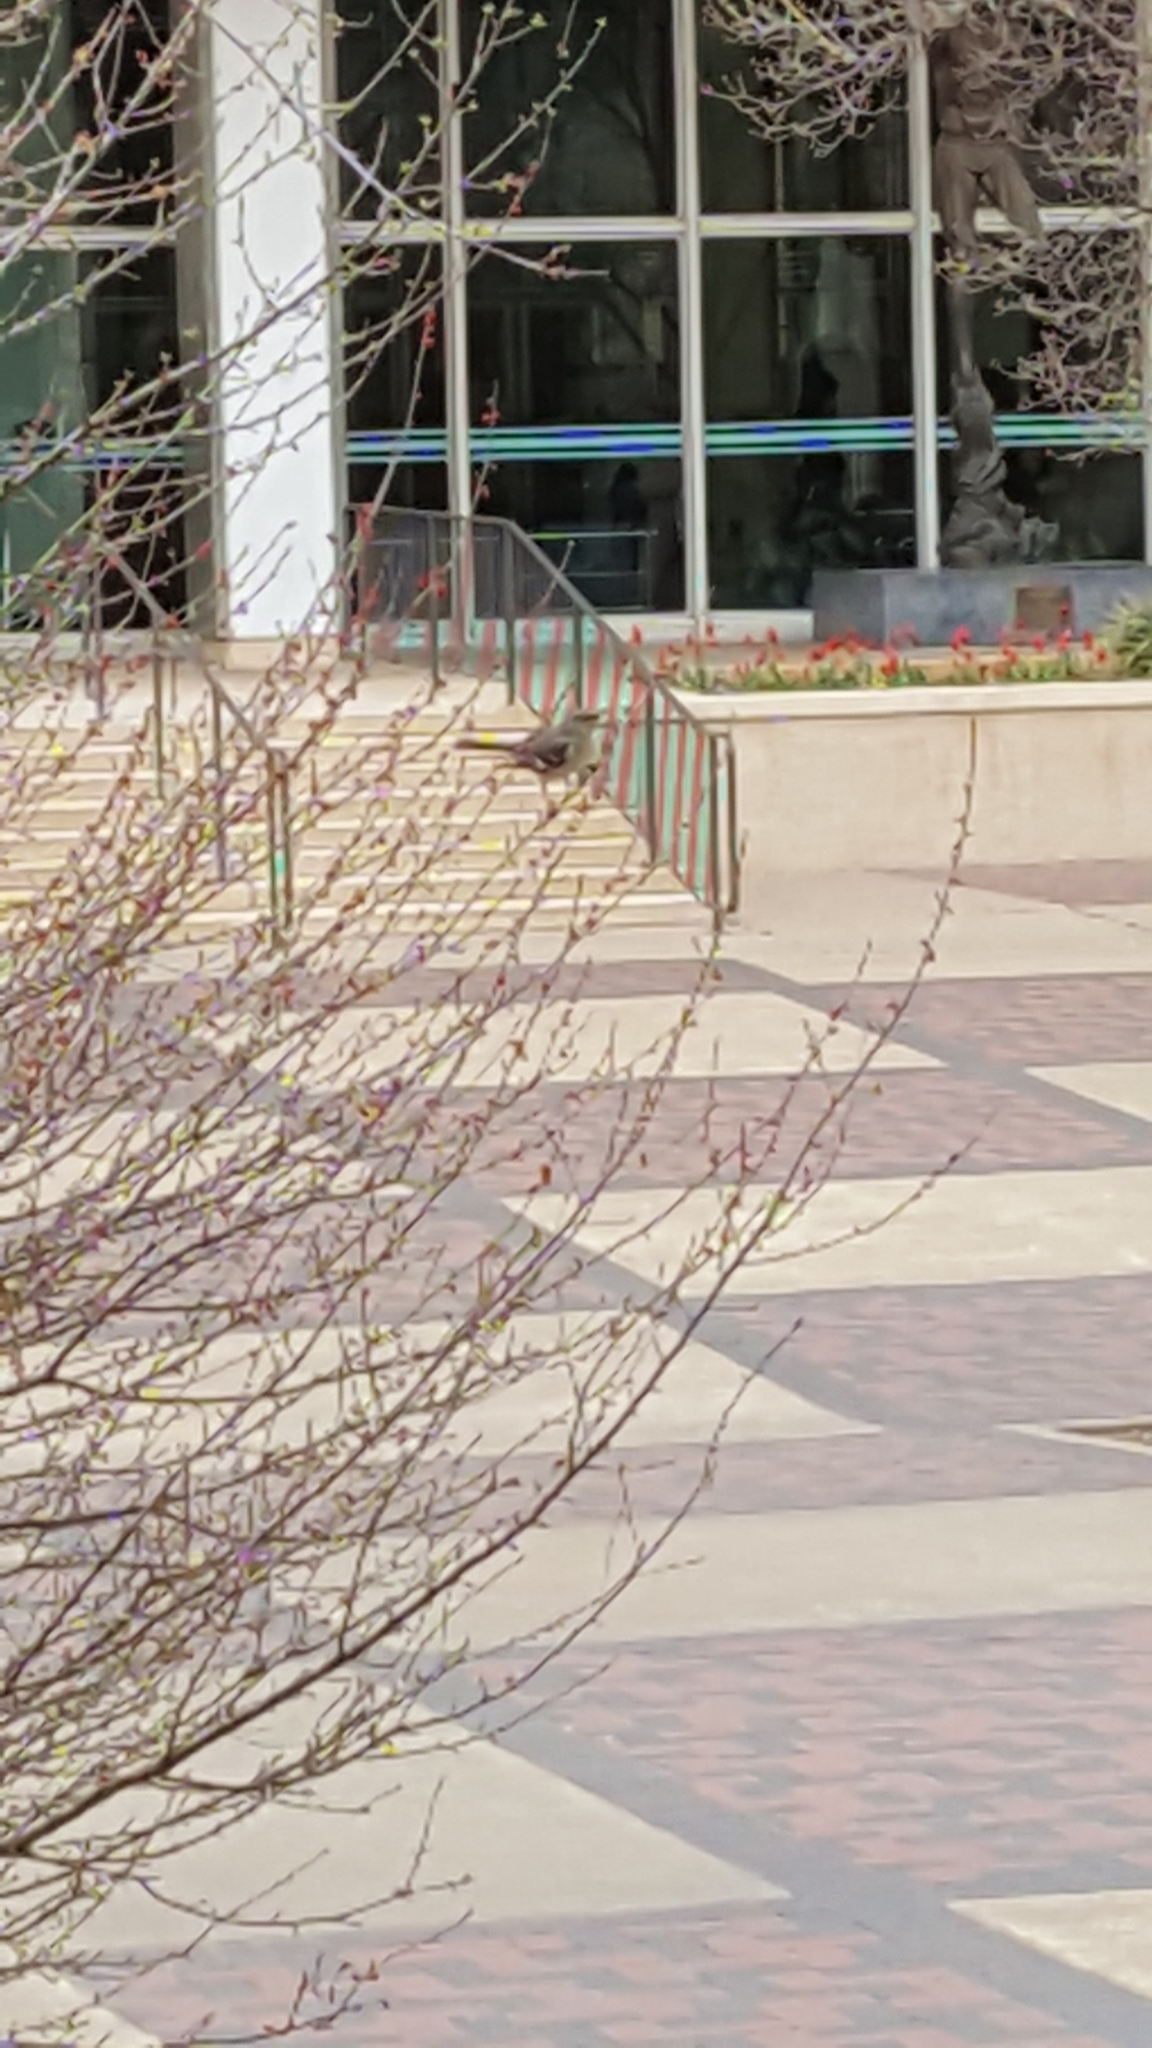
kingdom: Animalia
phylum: Chordata
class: Aves
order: Passeriformes
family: Mimidae
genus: Mimus
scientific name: Mimus polyglottos
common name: Northern mockingbird
